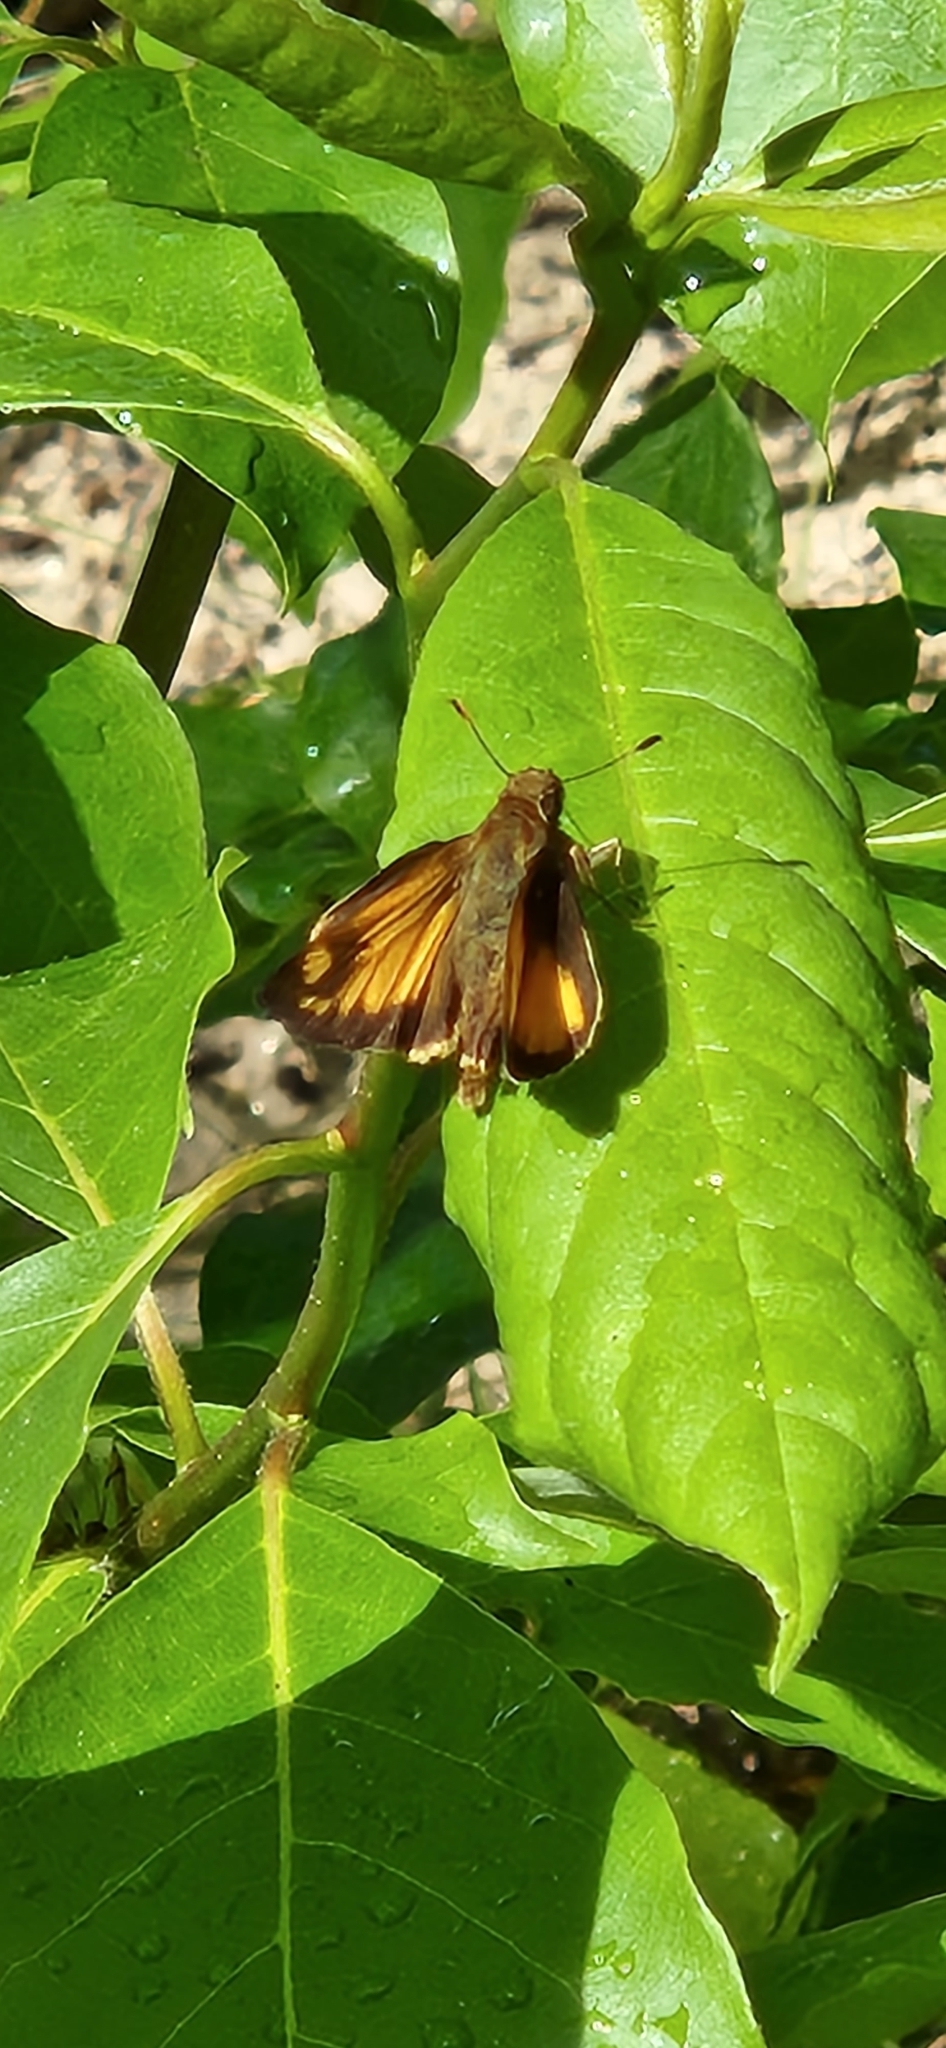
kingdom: Animalia
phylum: Arthropoda
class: Insecta
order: Lepidoptera
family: Hesperiidae
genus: Lon
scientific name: Lon zabulon
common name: Zabulon skipper
